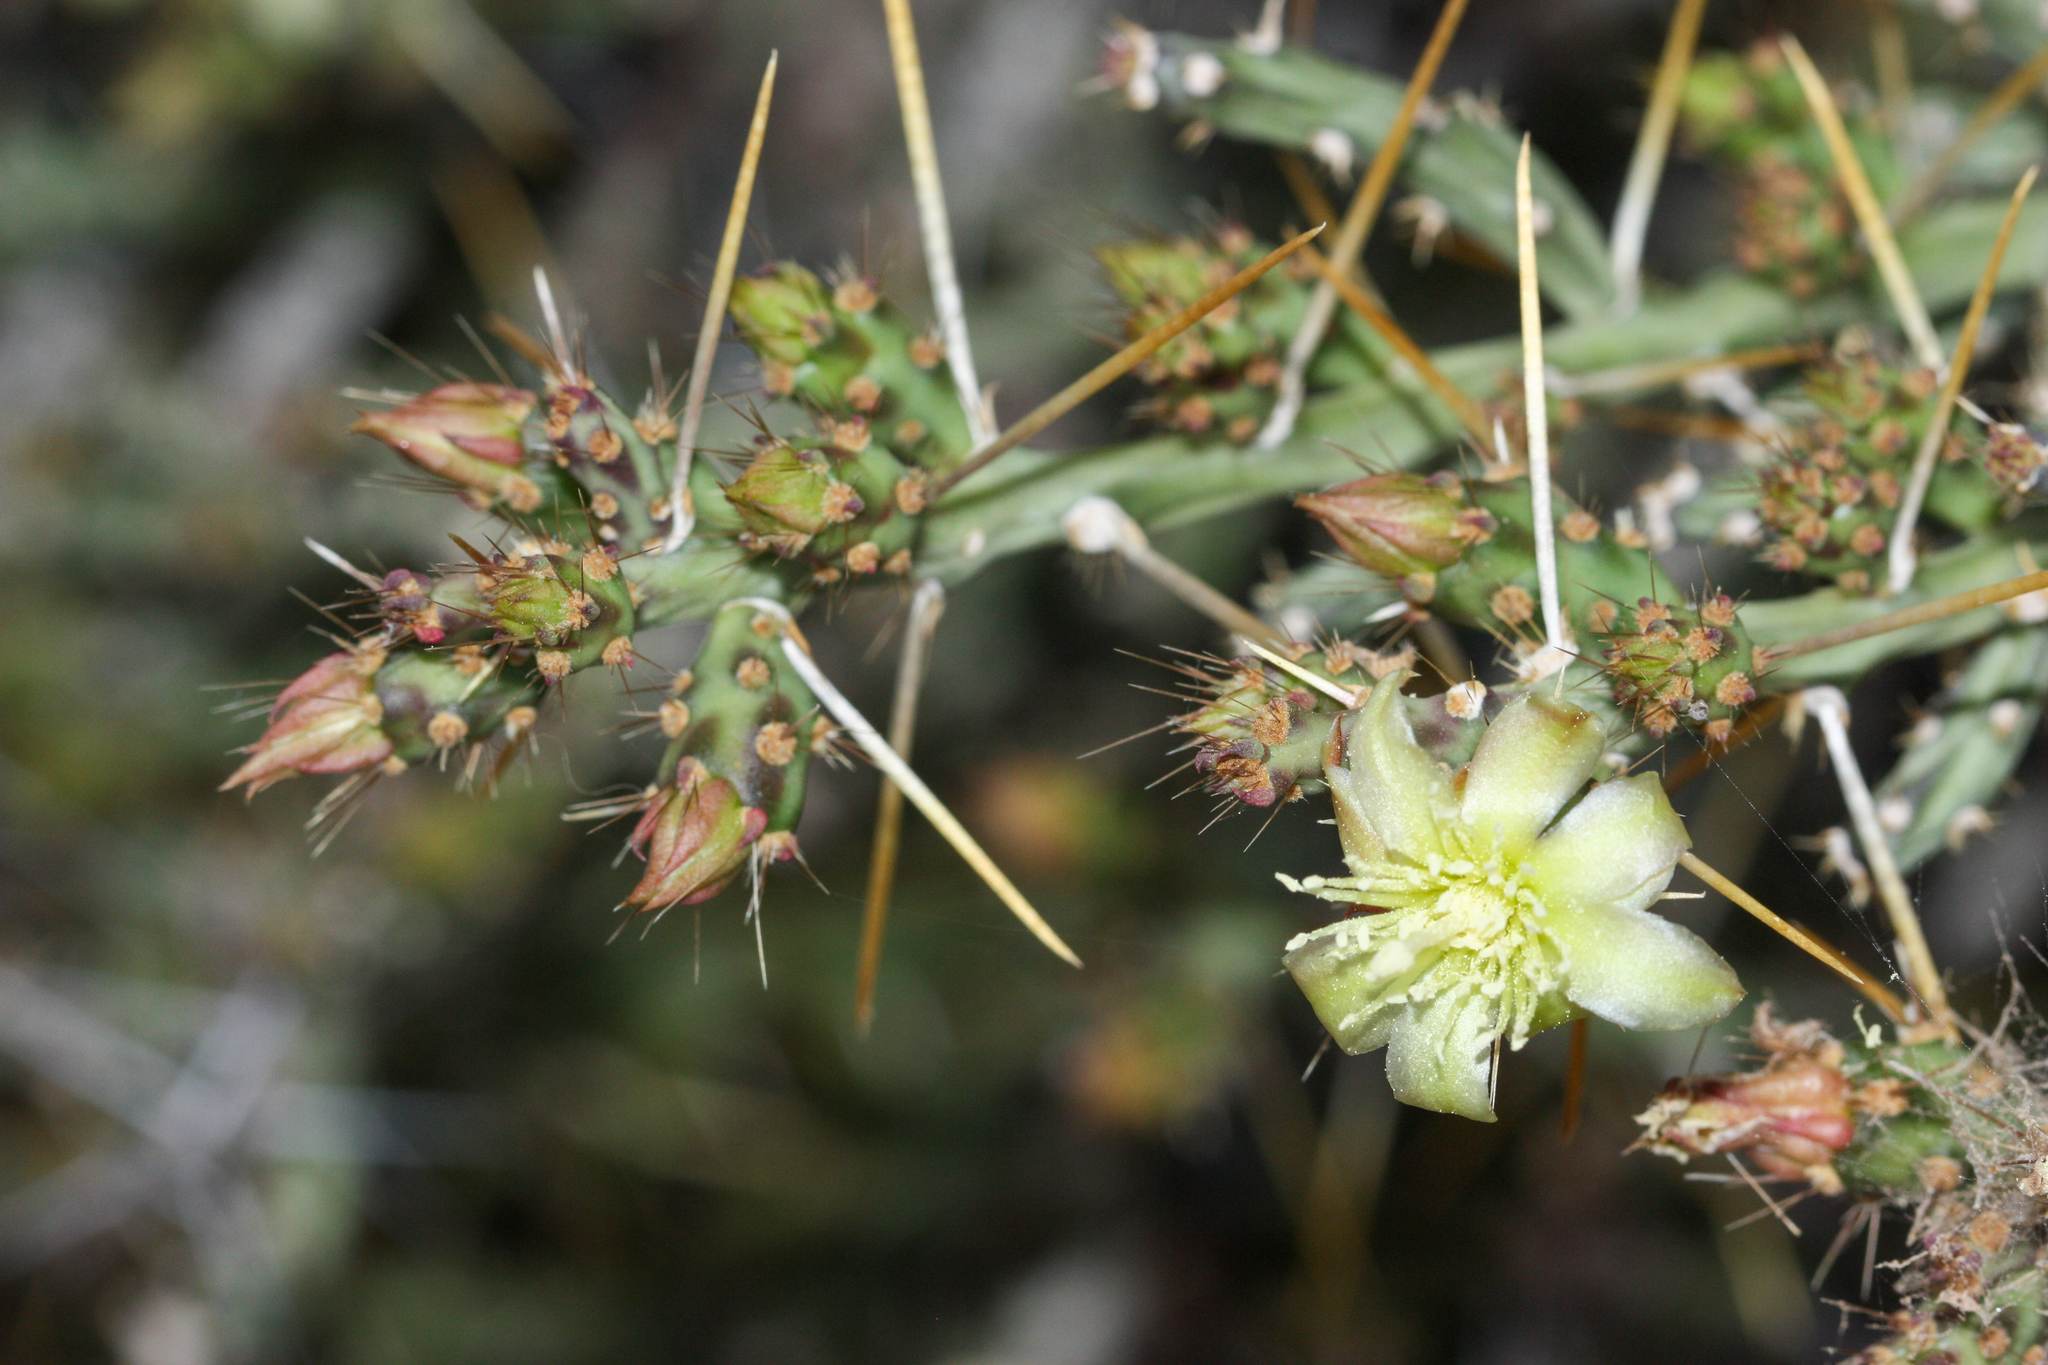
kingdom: Plantae
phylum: Tracheophyta
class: Magnoliopsida
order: Caryophyllales
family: Cactaceae
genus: Cylindropuntia
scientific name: Cylindropuntia leptocaulis
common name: Christmas cactus
